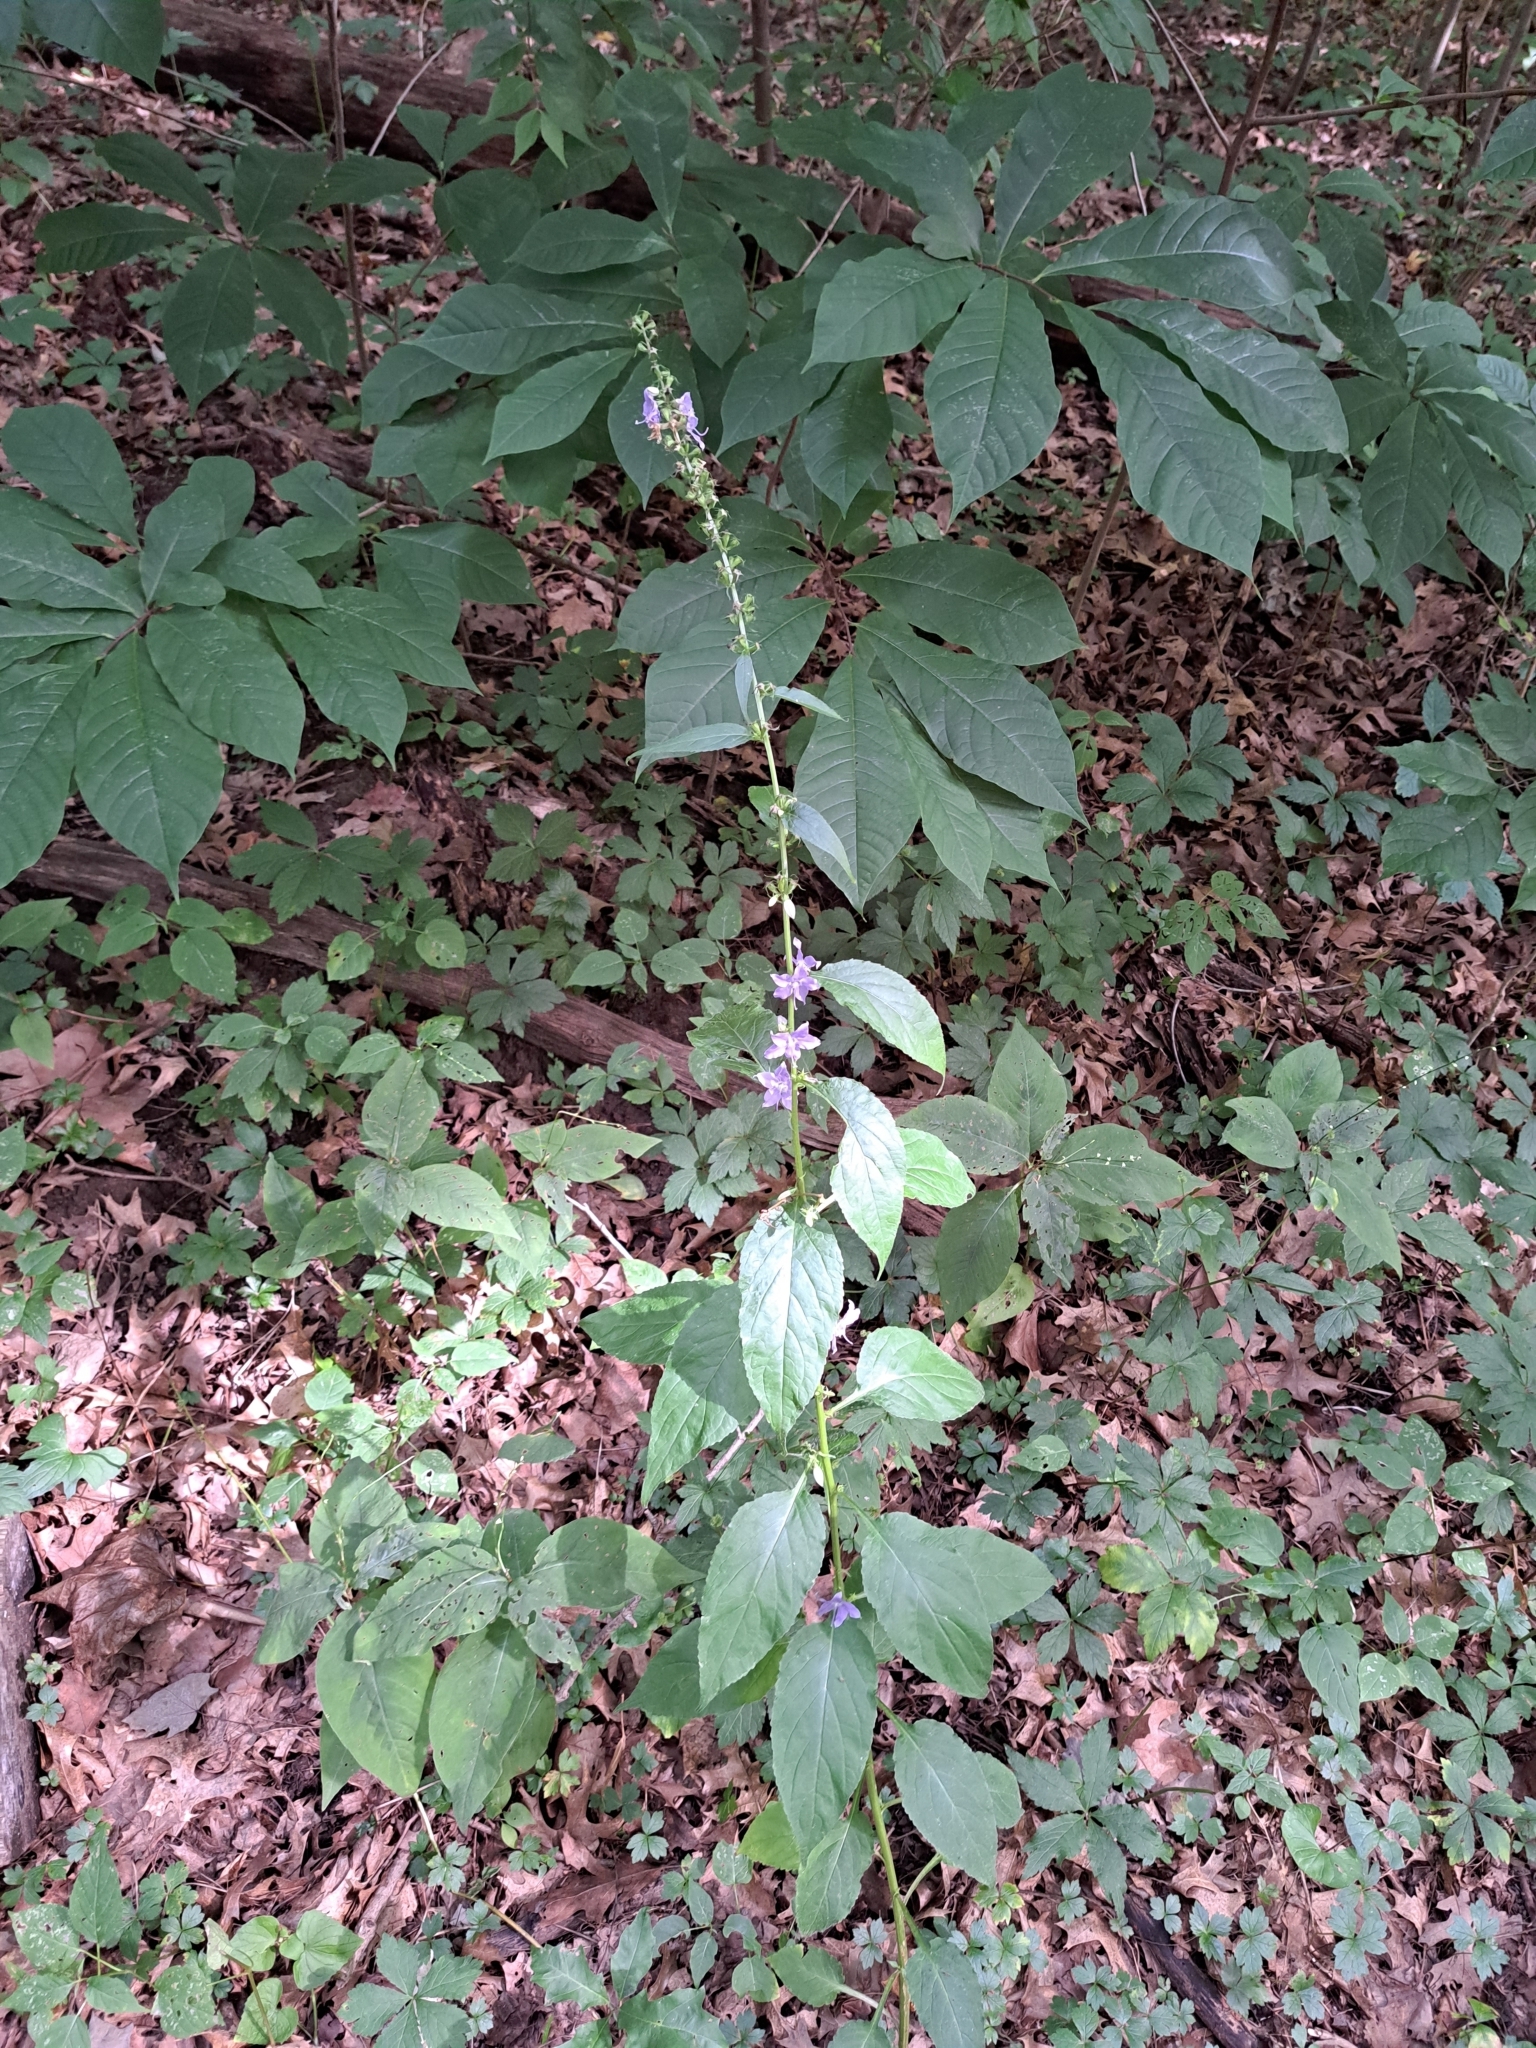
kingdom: Plantae
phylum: Tracheophyta
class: Magnoliopsida
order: Asterales
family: Campanulaceae
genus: Campanulastrum
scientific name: Campanulastrum americanum
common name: American bellflower
